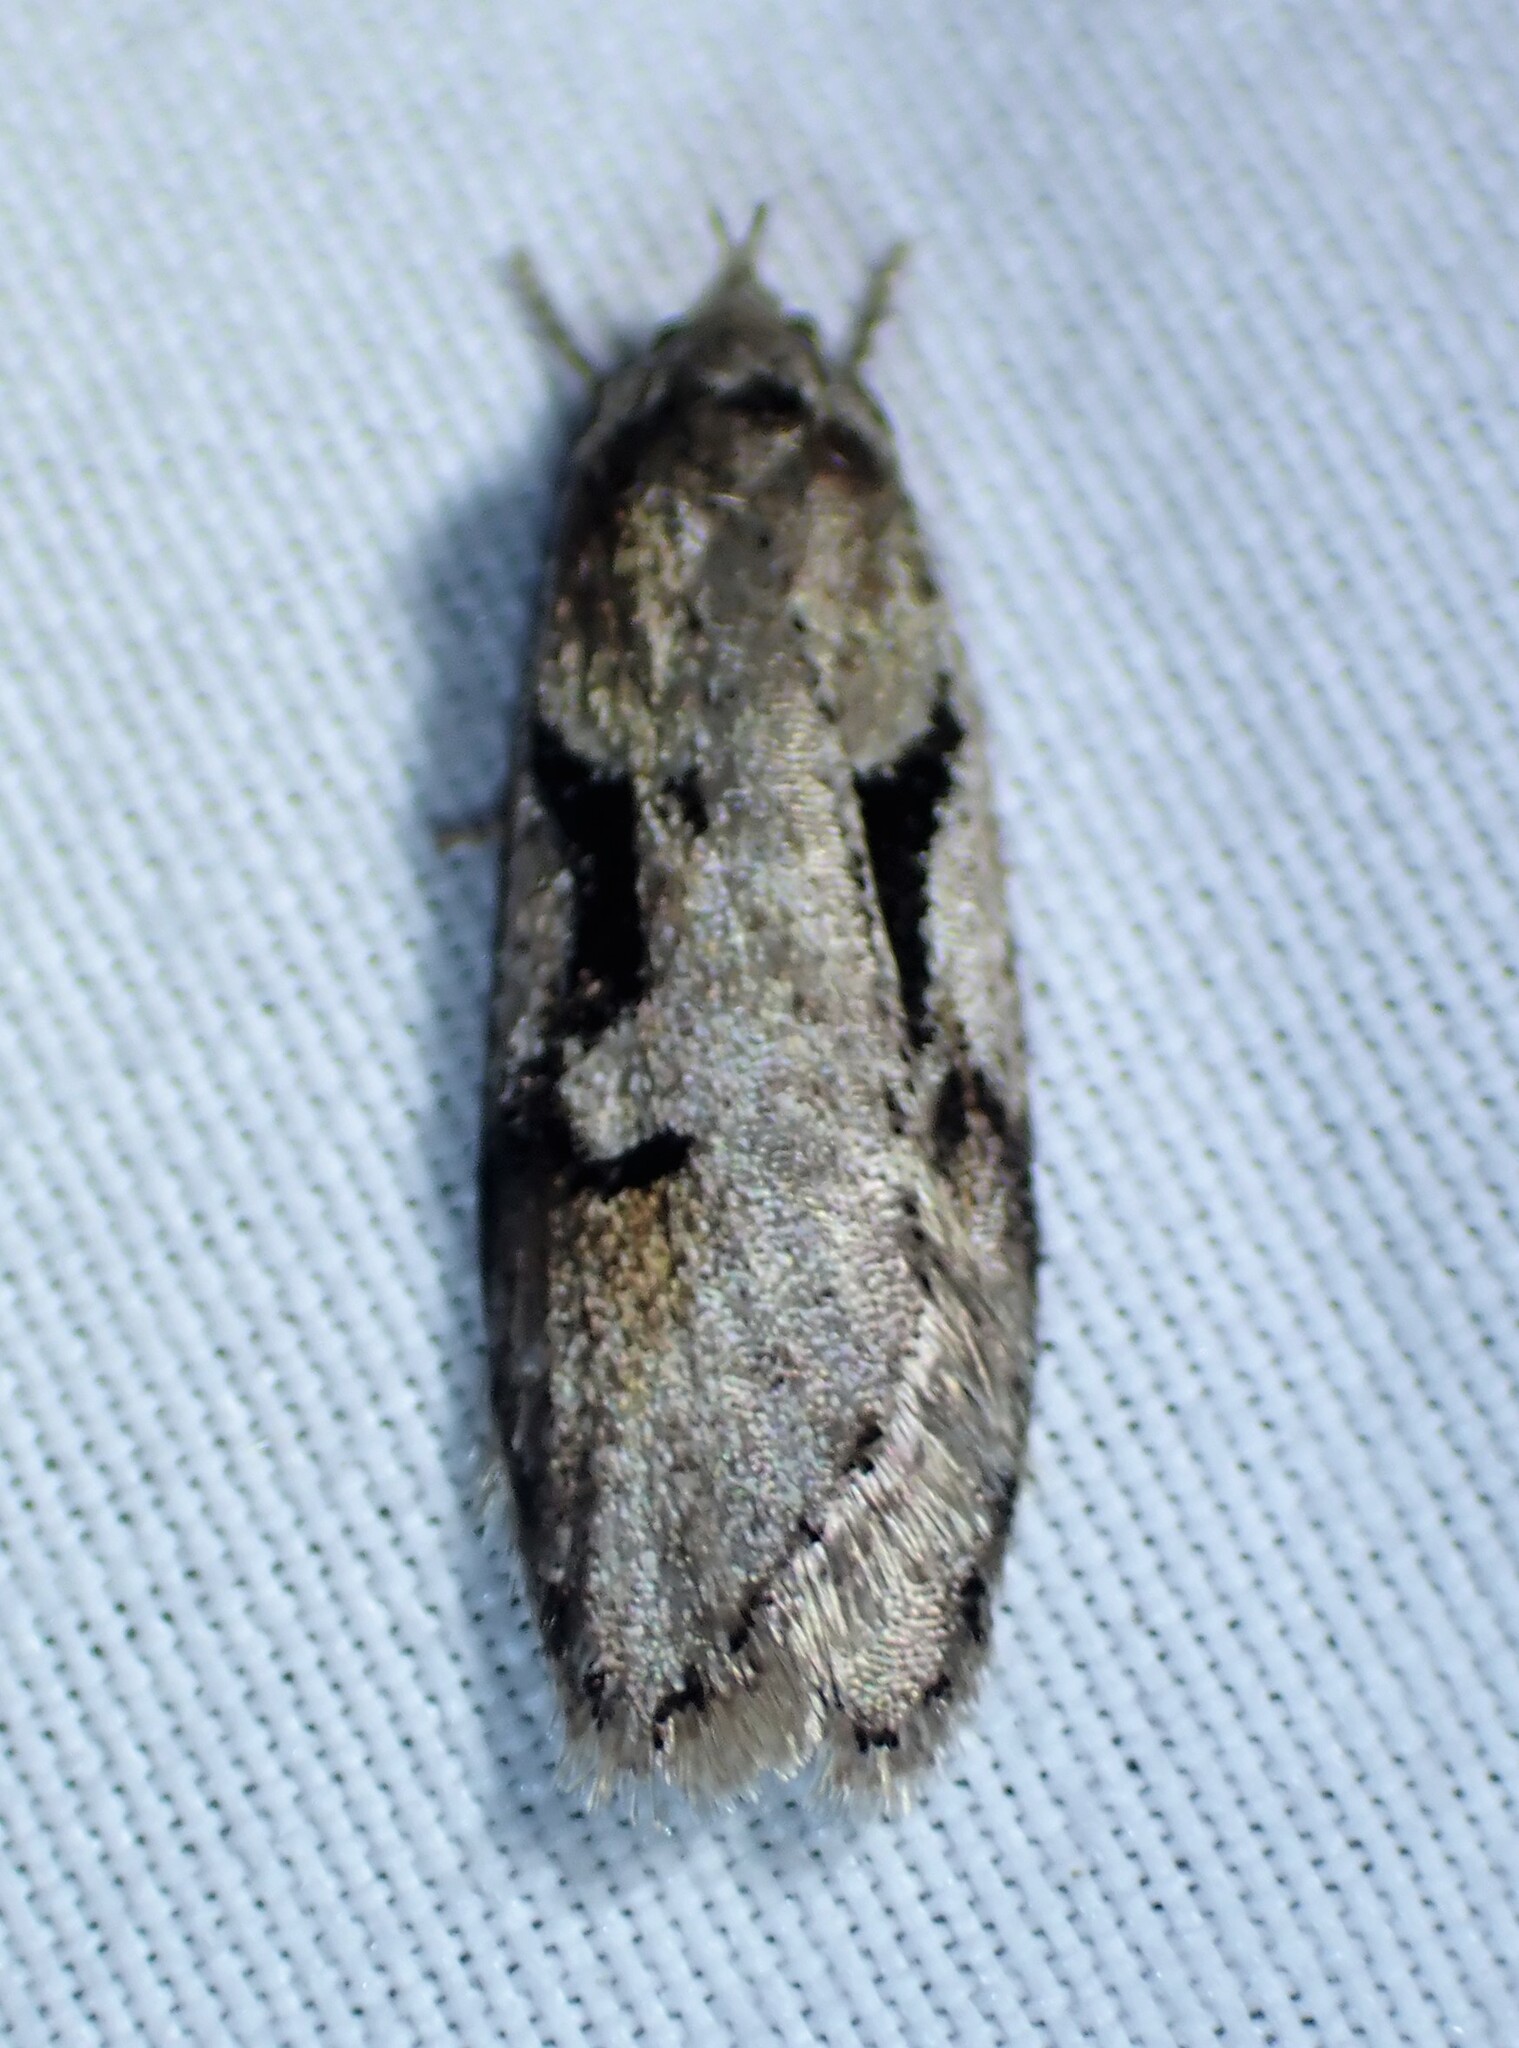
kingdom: Animalia
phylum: Arthropoda
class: Insecta
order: Lepidoptera
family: Depressariidae
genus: Semioscopis
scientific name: Semioscopis merriccella
